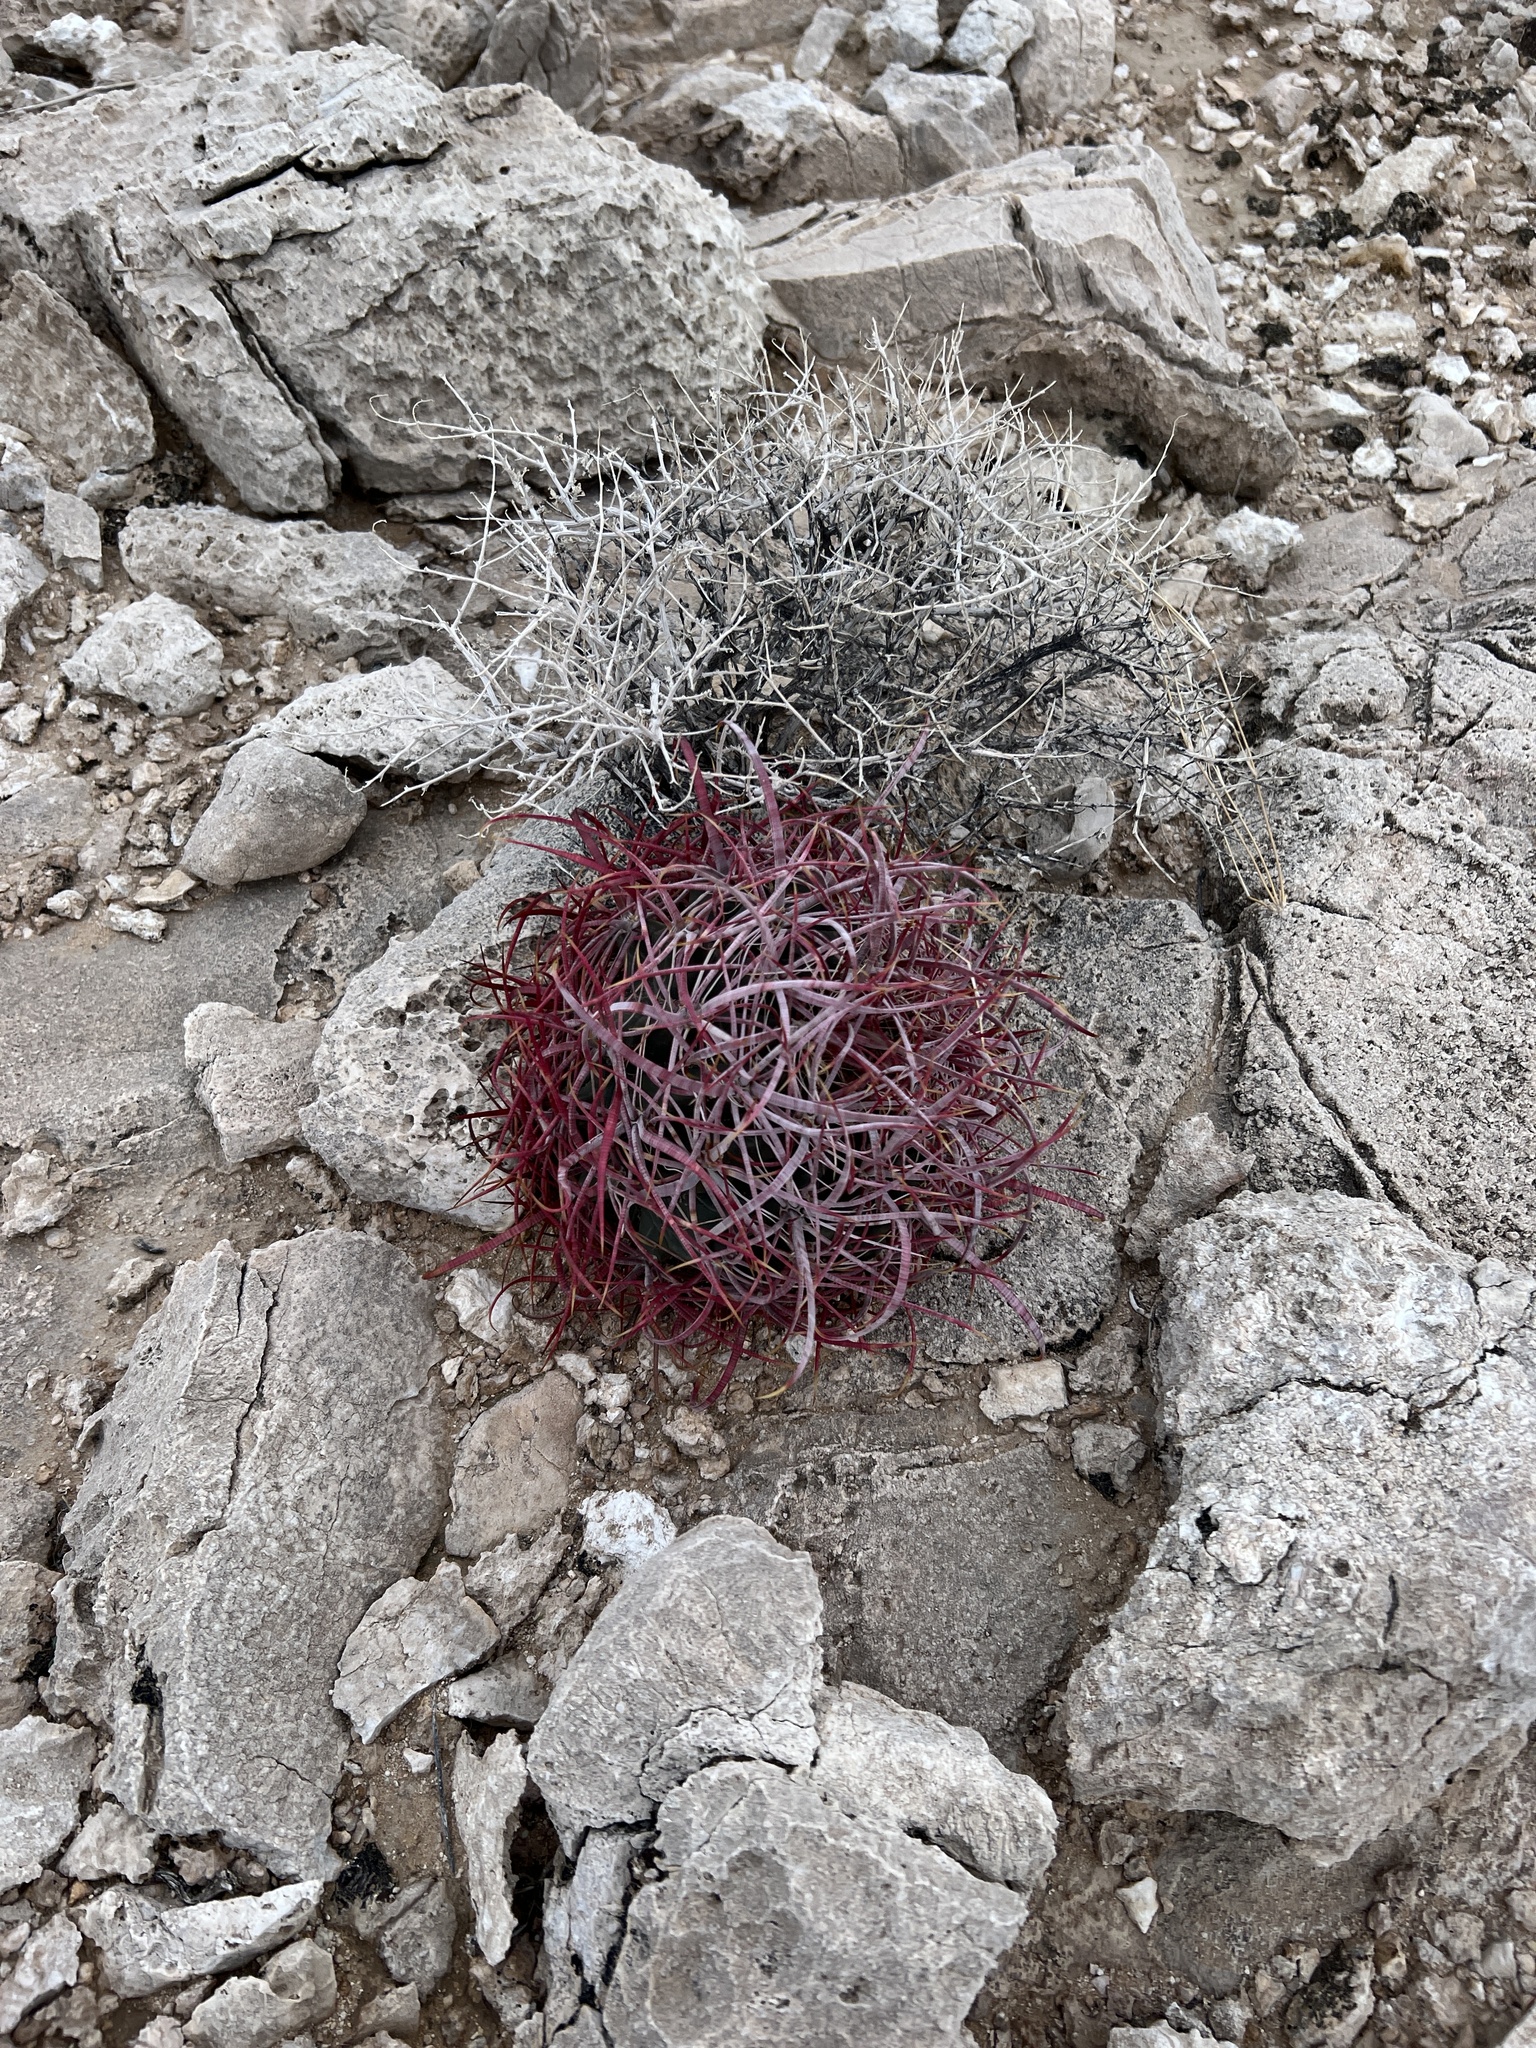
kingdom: Plantae
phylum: Tracheophyta
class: Magnoliopsida
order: Caryophyllales
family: Cactaceae
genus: Ferocactus
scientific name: Ferocactus cylindraceus
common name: California barrel cactus
